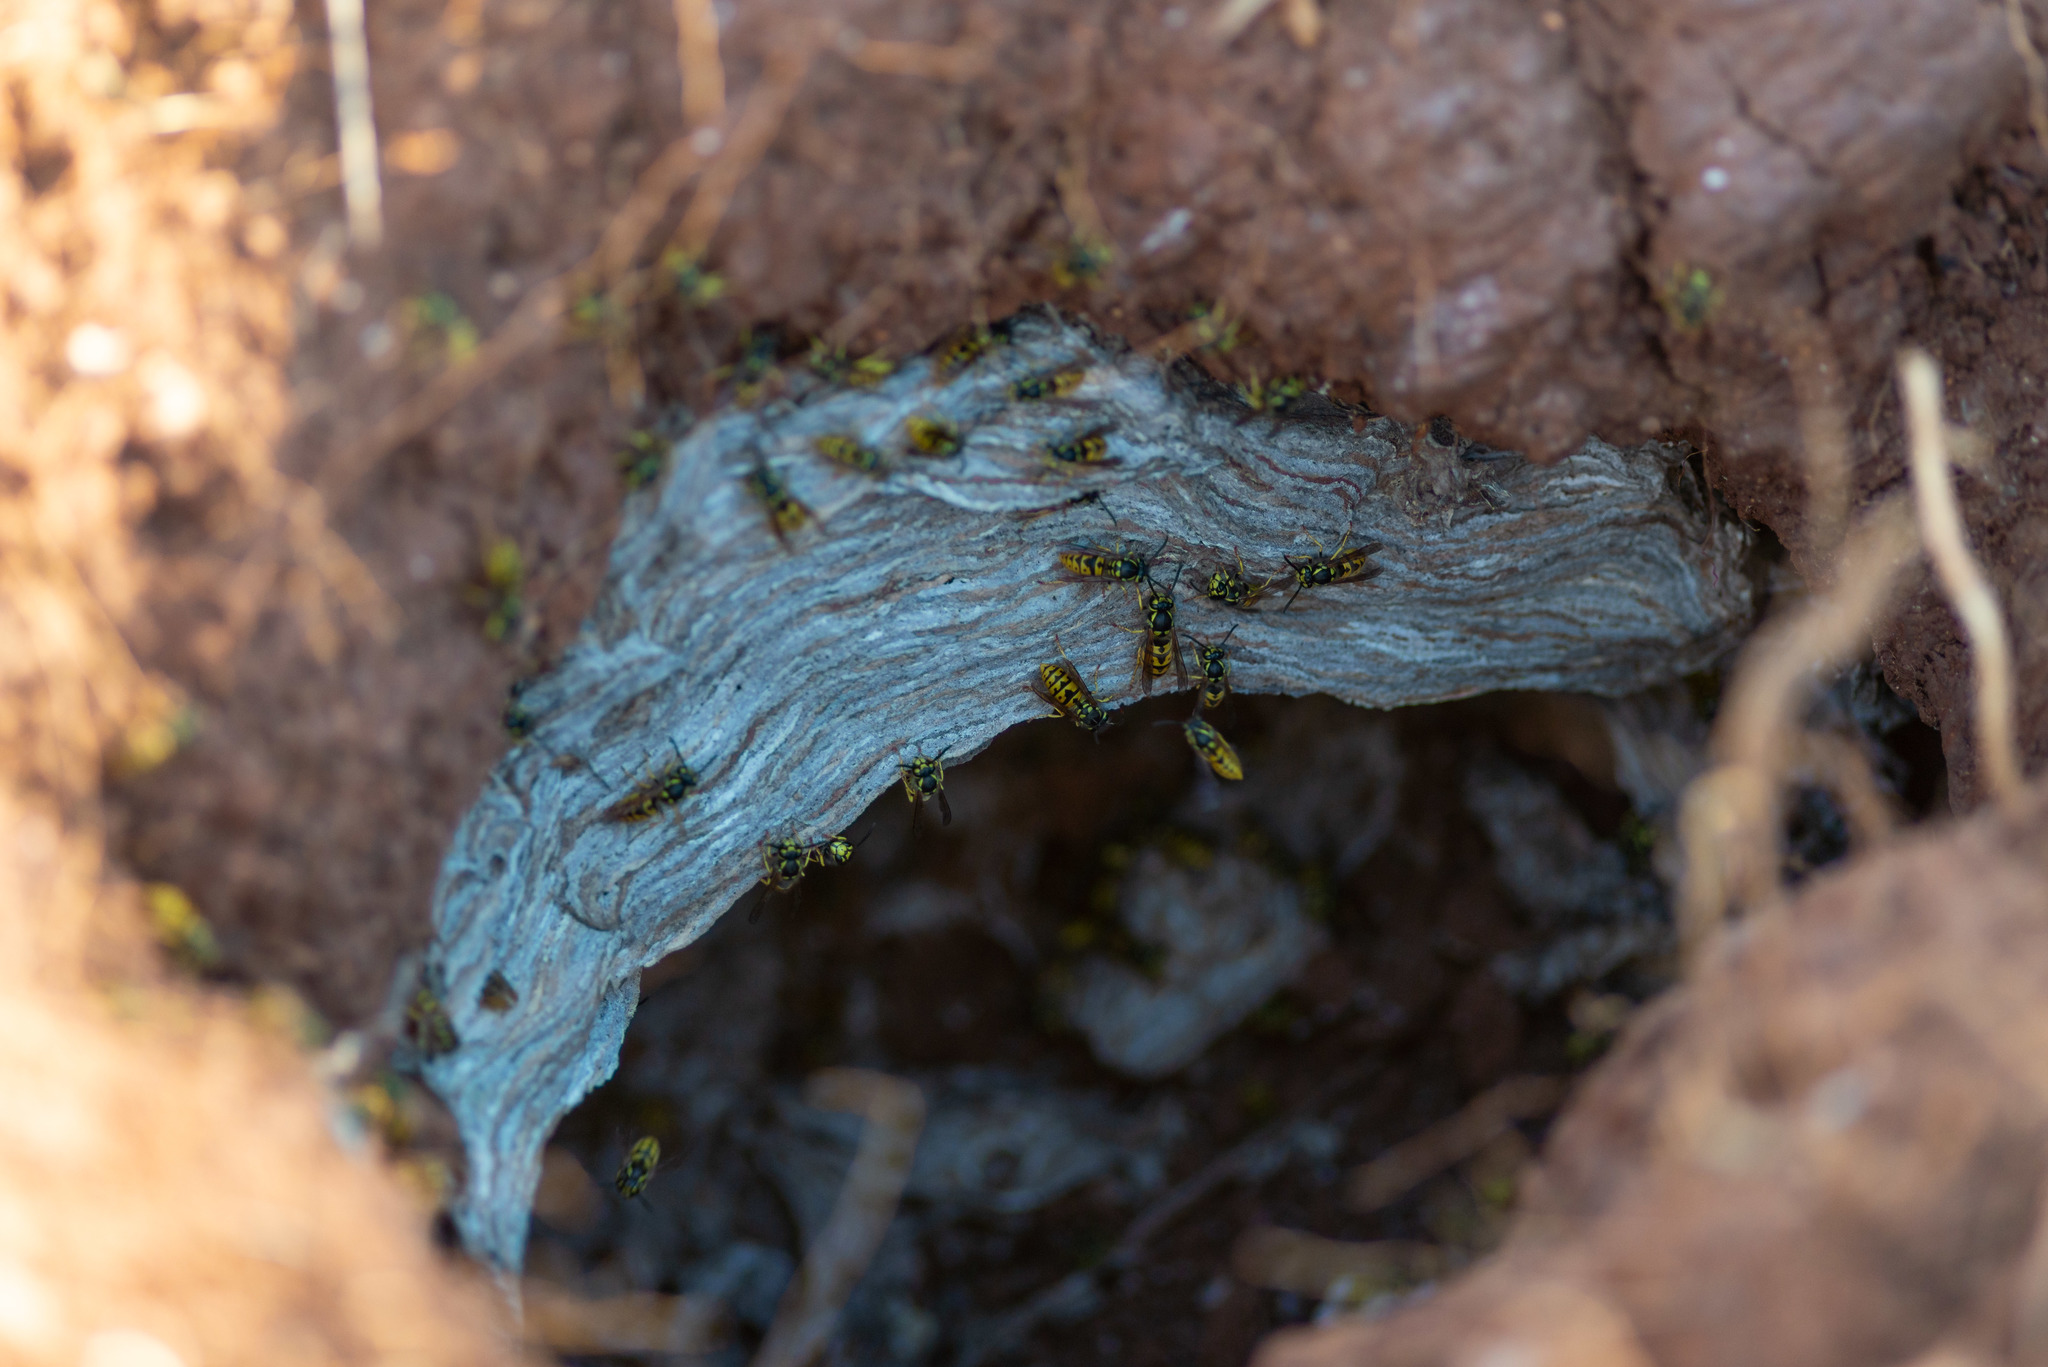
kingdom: Animalia
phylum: Arthropoda
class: Insecta
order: Hymenoptera
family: Vespidae
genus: Vespula
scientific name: Vespula germanica
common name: German wasp
